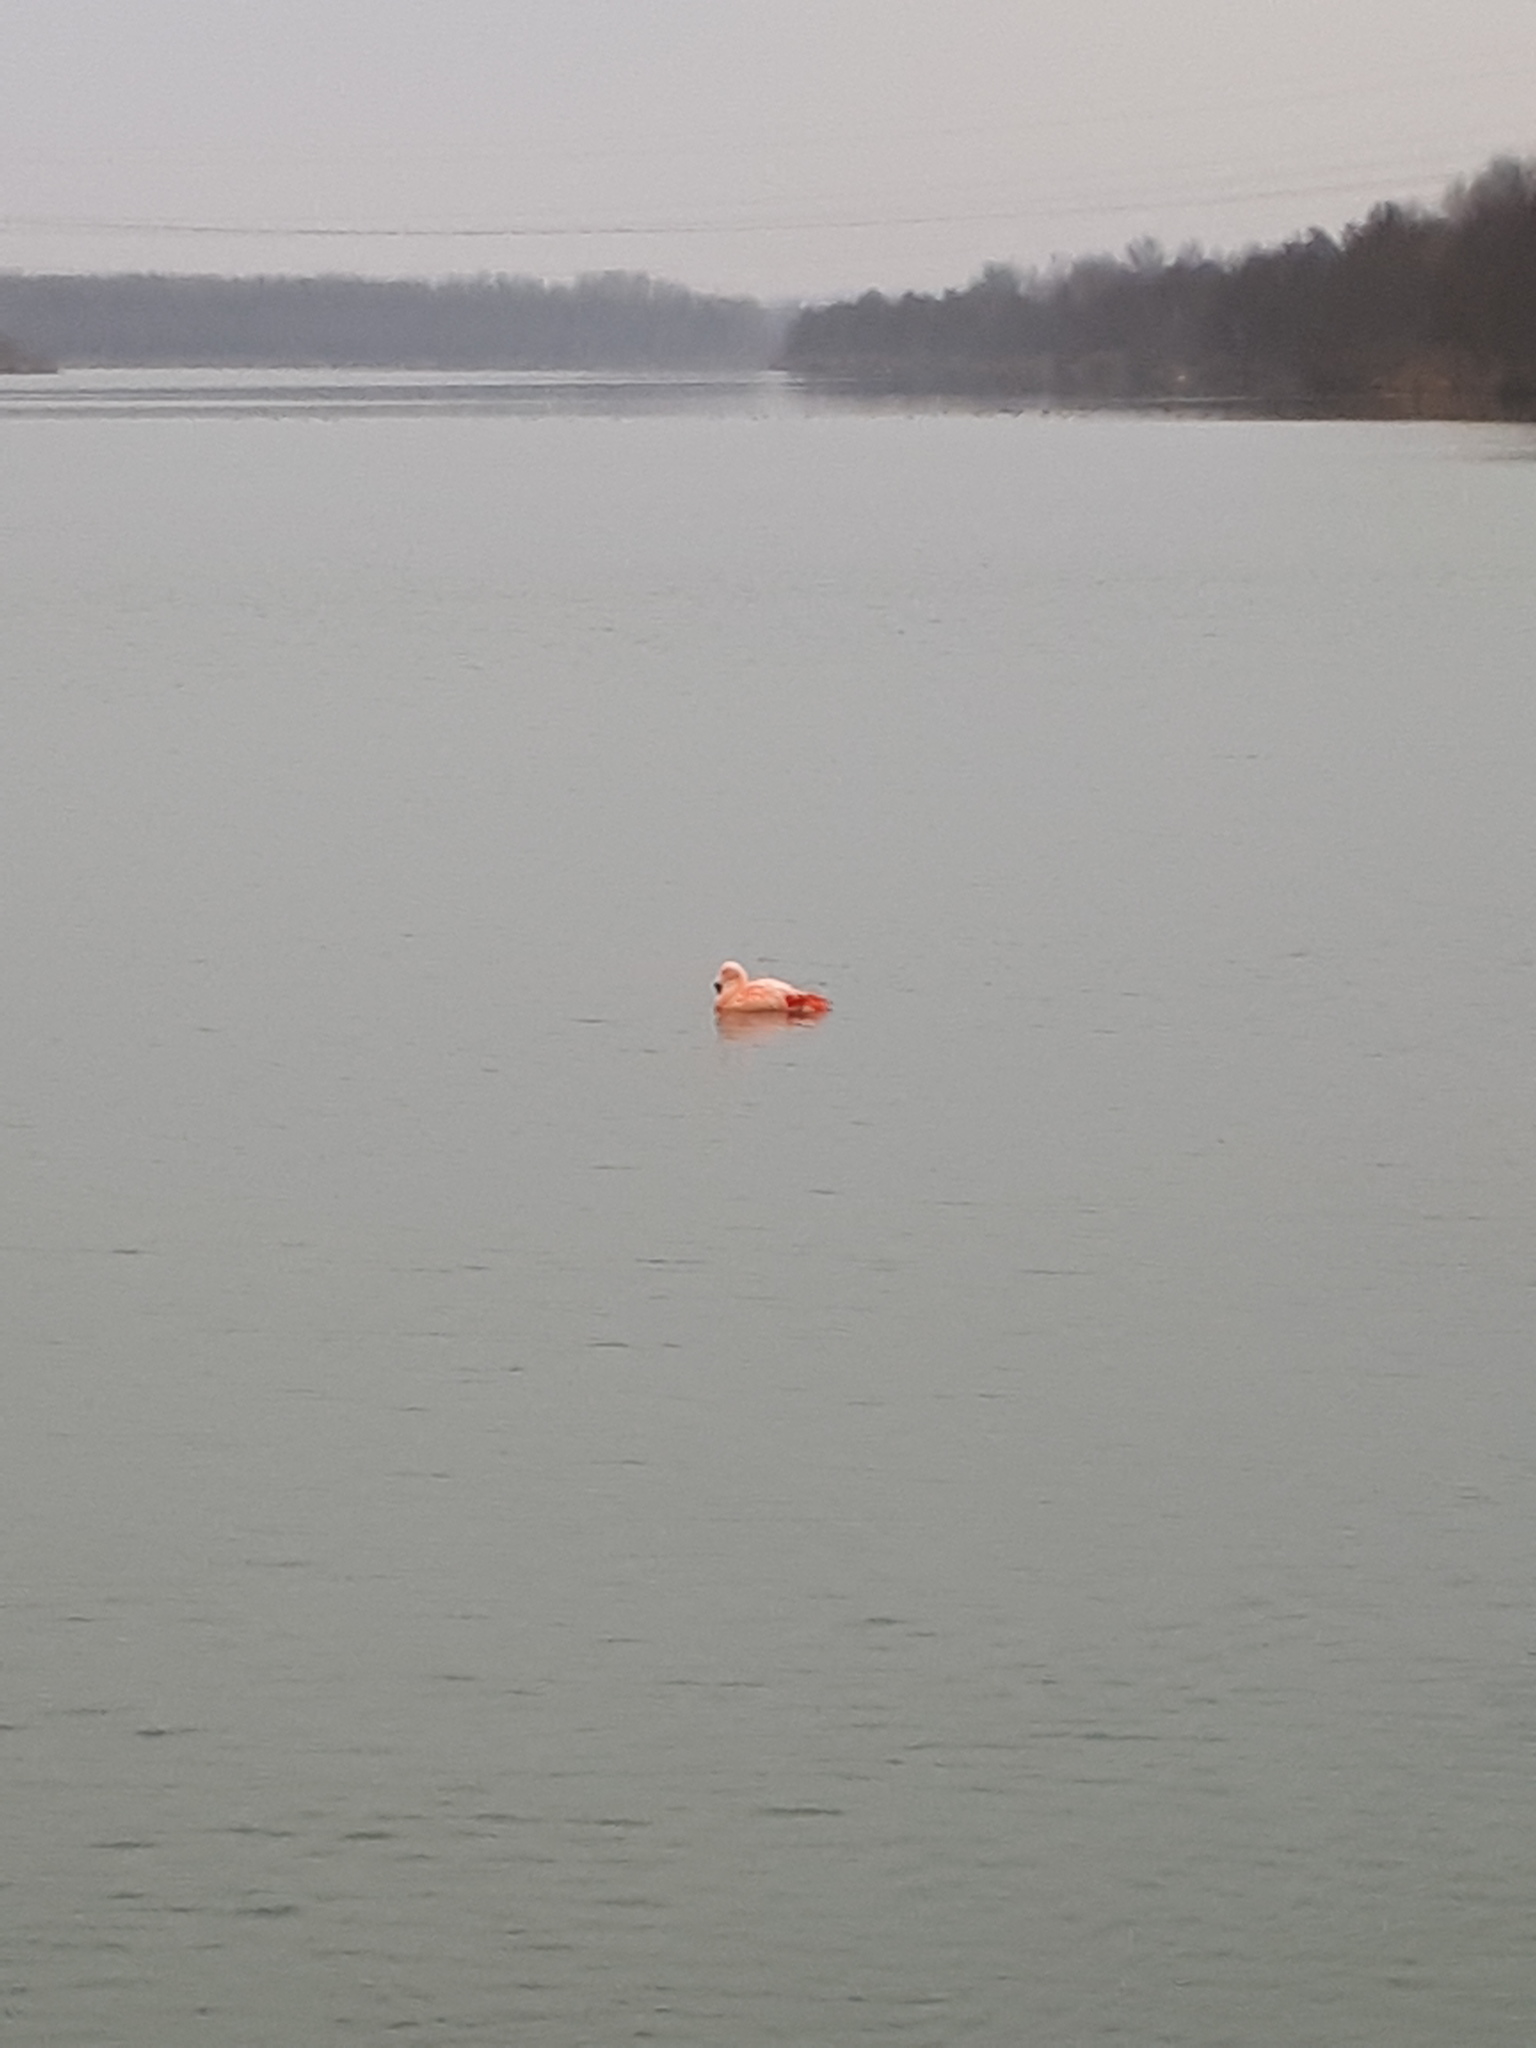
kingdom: Animalia
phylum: Chordata
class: Aves
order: Phoenicopteriformes
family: Phoenicopteridae
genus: Phoenicopterus
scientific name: Phoenicopterus chilensis
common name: Chilean flamingo
